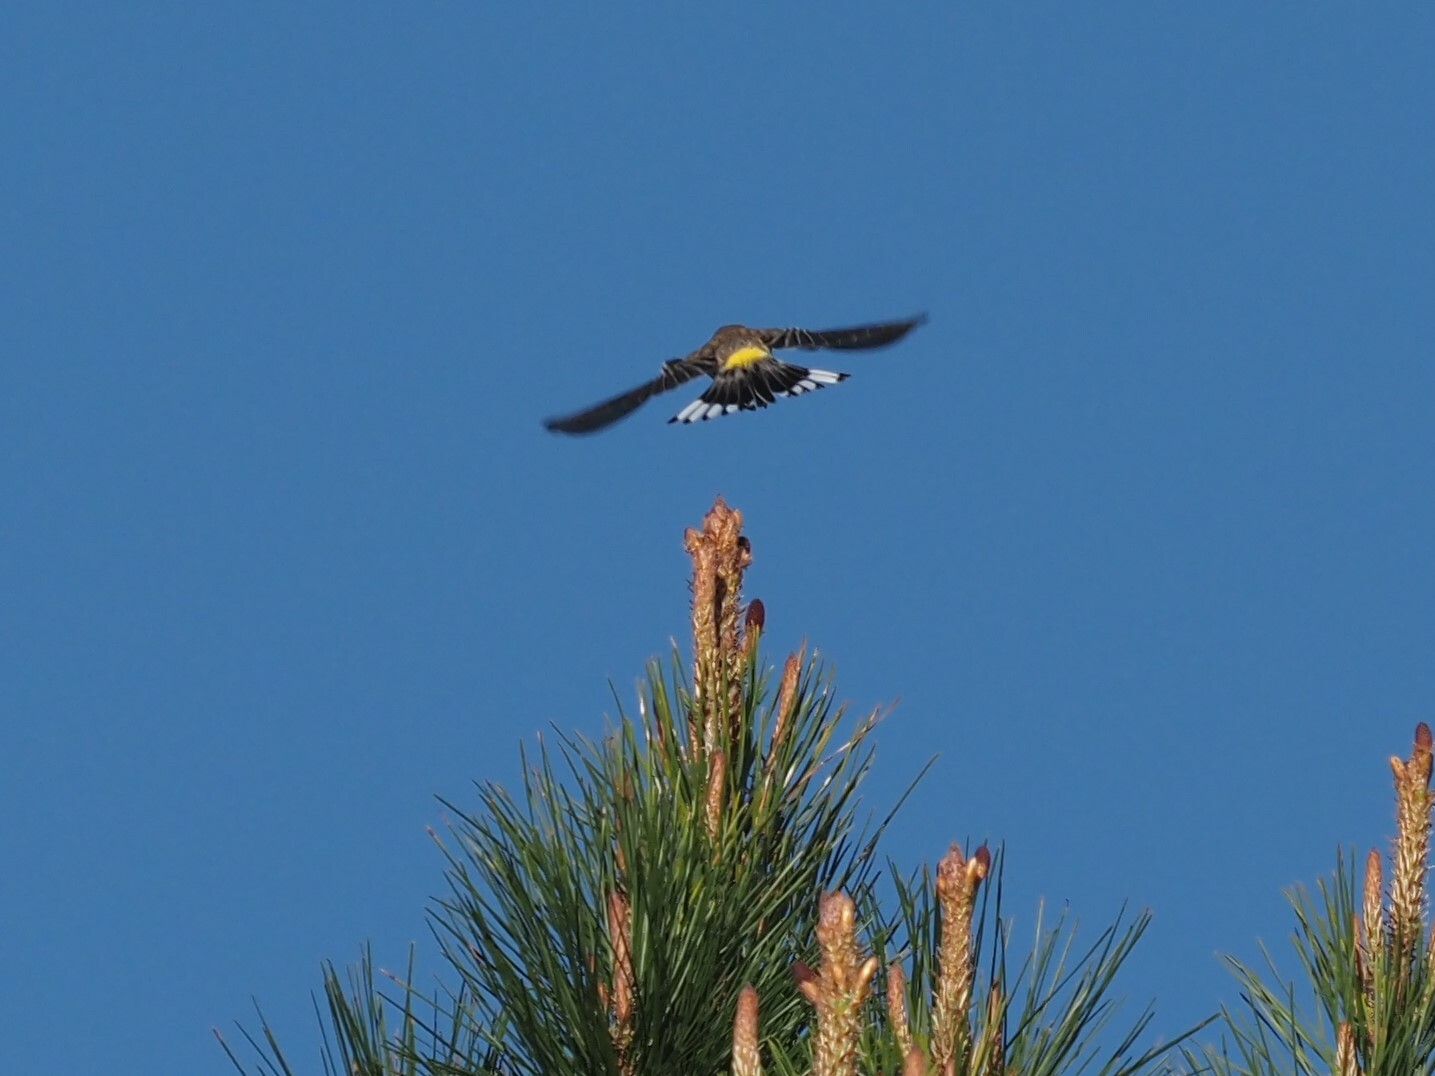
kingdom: Animalia
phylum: Chordata
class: Aves
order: Passeriformes
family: Parulidae
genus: Setophaga
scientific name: Setophaga coronata
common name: Myrtle warbler
